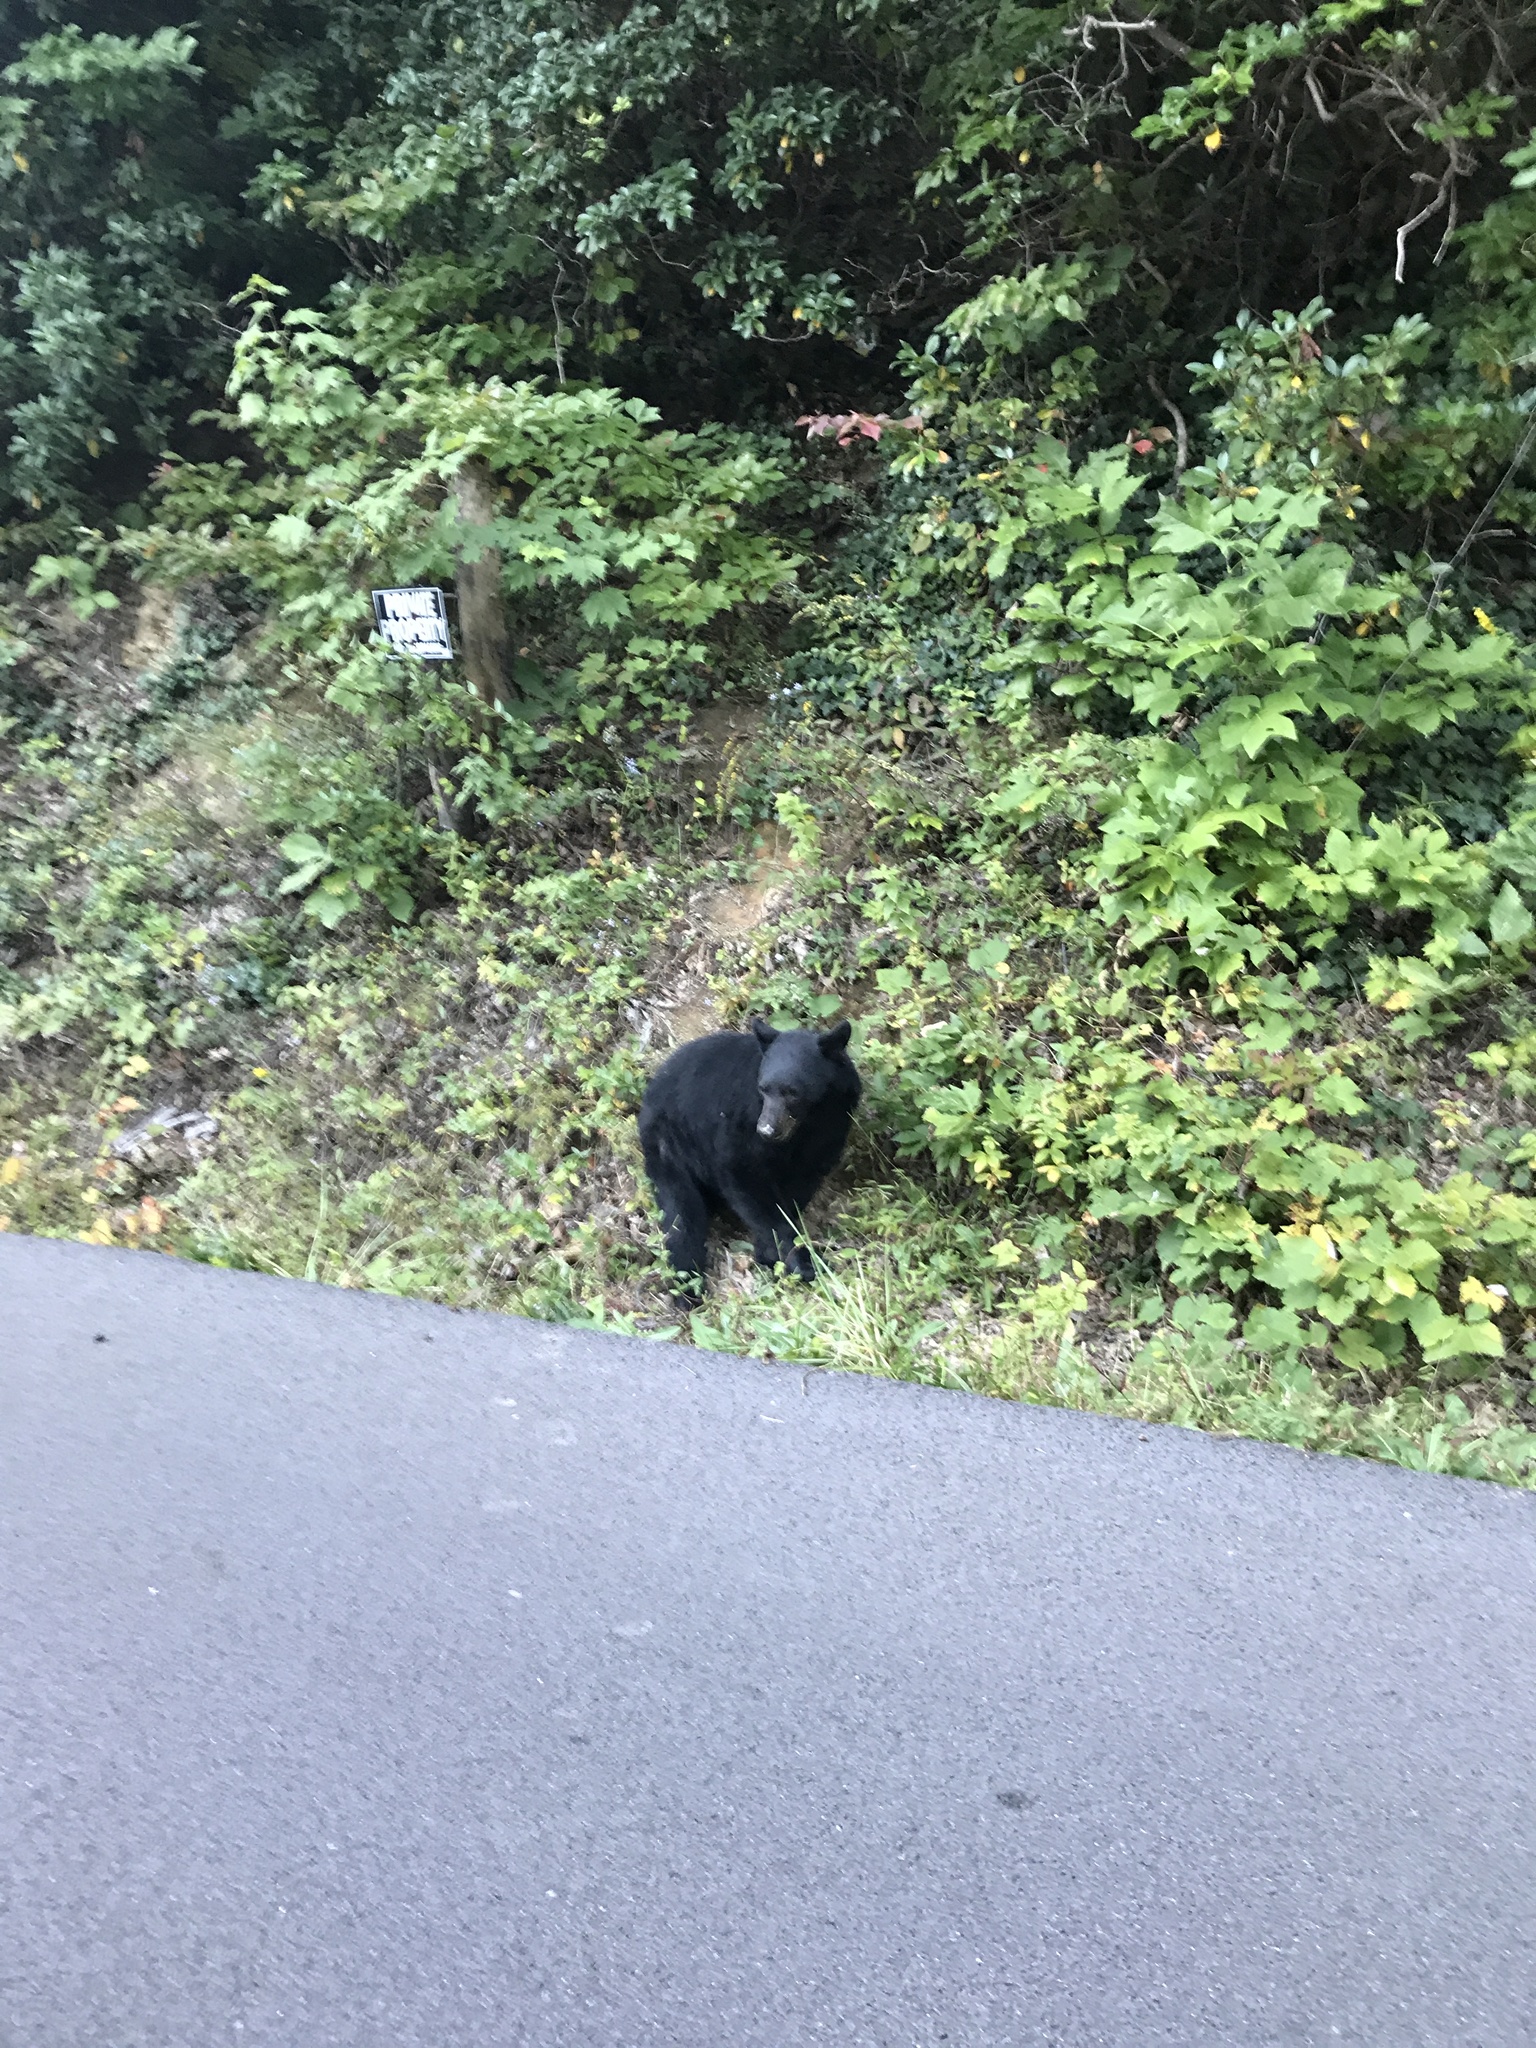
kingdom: Animalia
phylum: Chordata
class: Mammalia
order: Carnivora
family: Ursidae
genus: Ursus
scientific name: Ursus americanus
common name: American black bear
